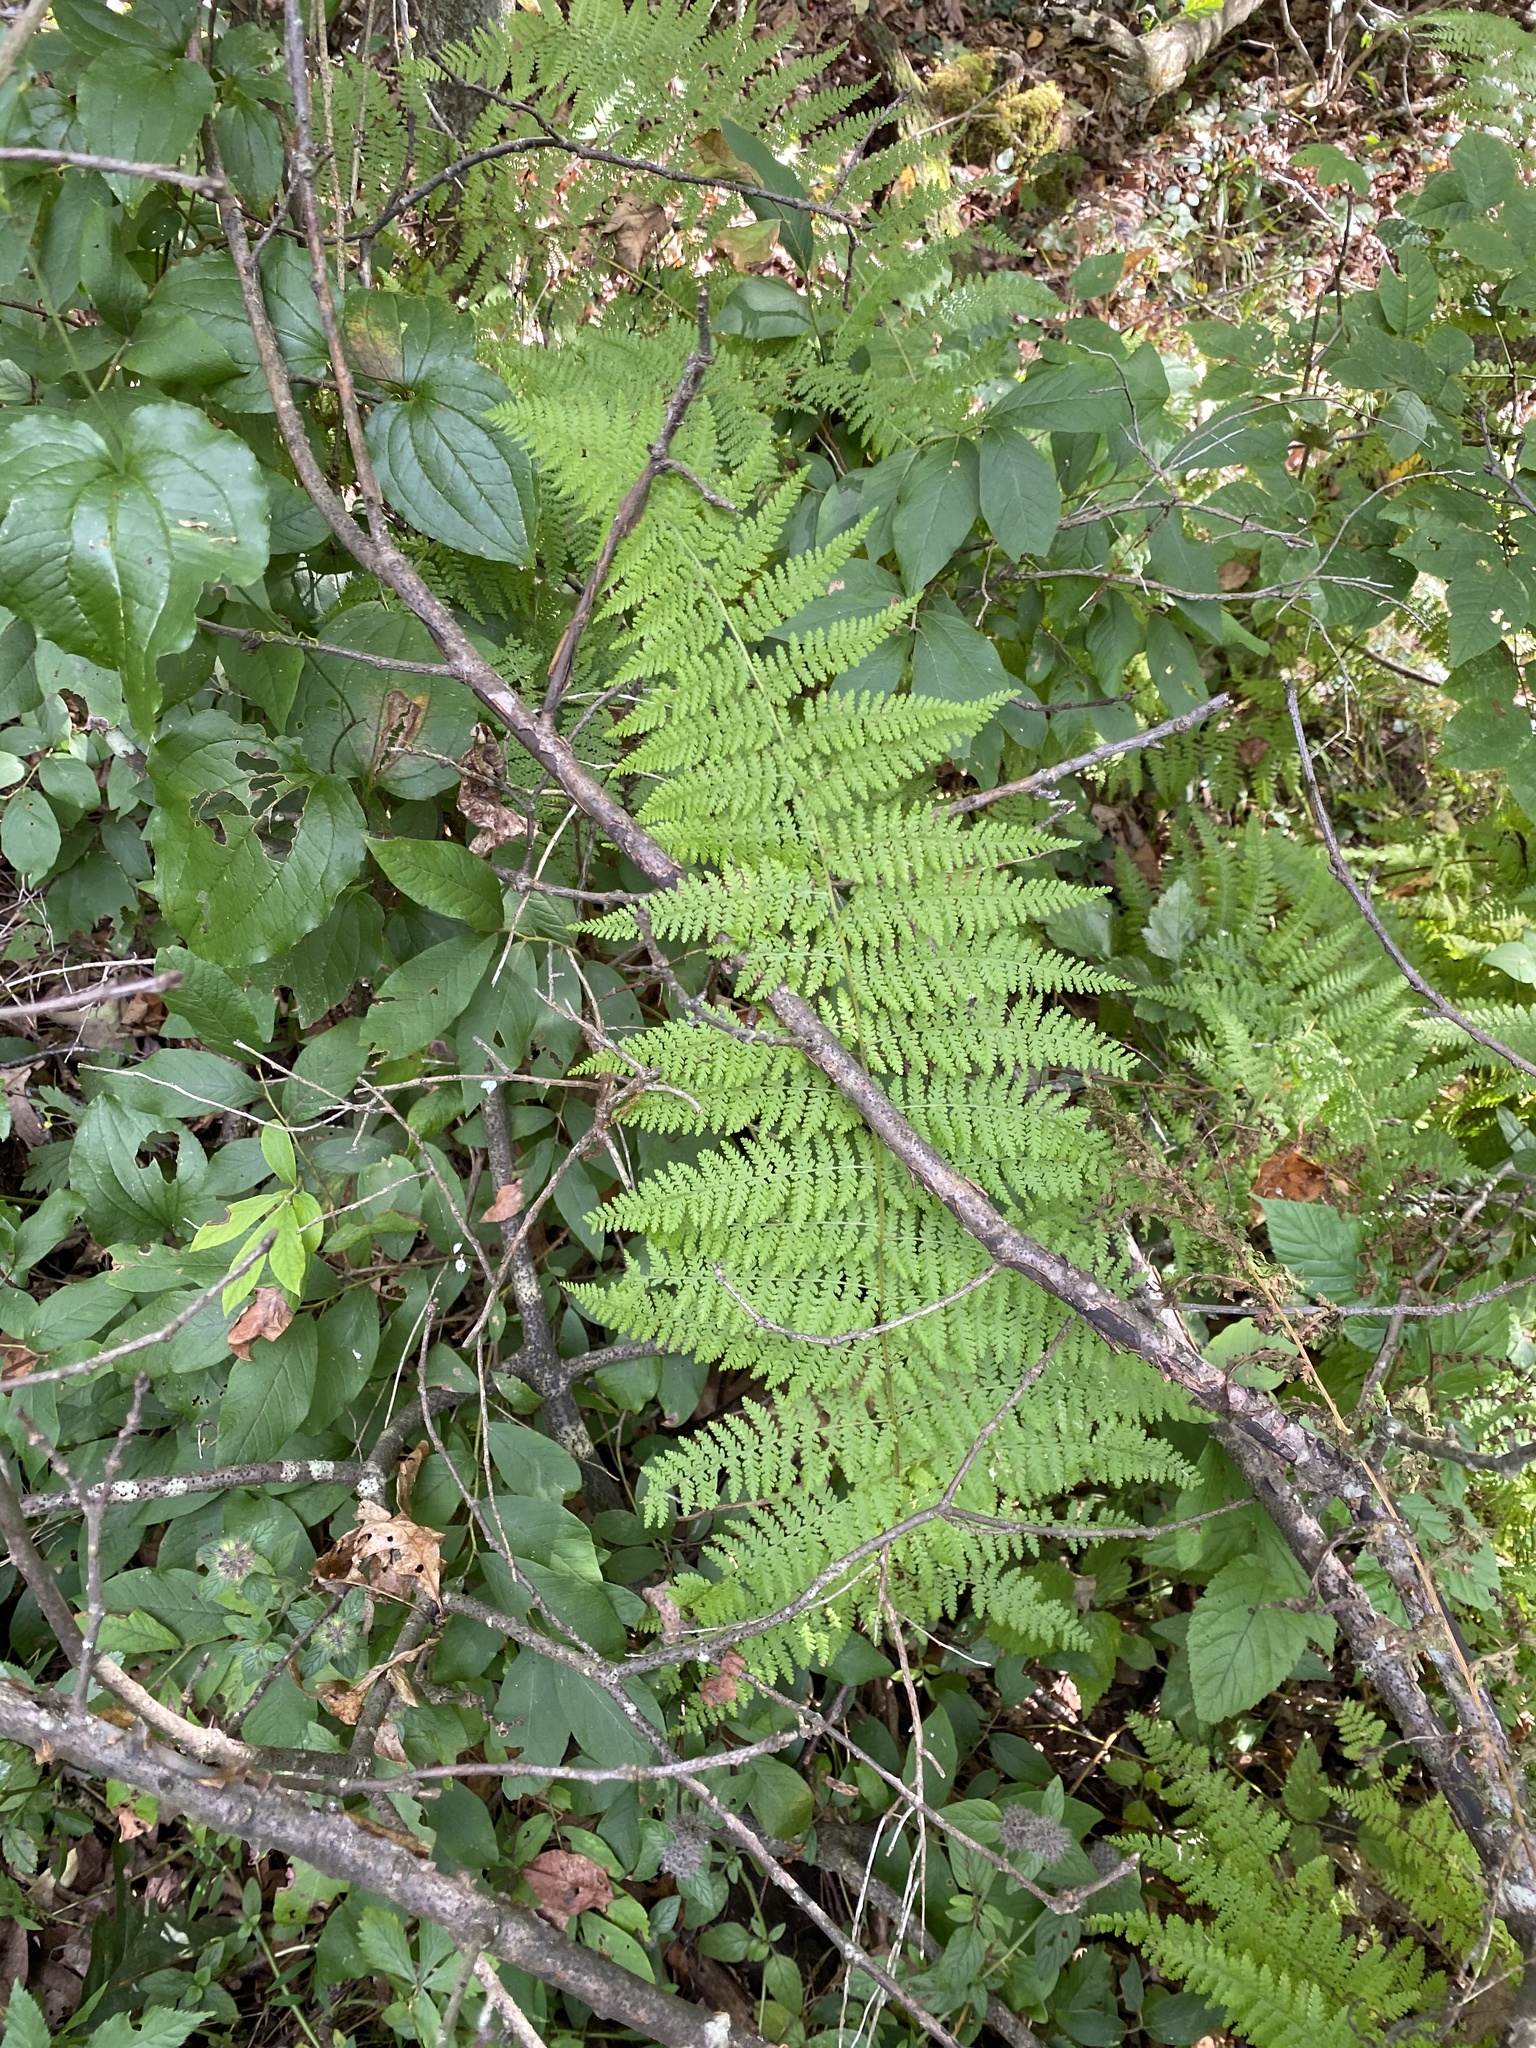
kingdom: Plantae
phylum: Tracheophyta
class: Polypodiopsida
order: Polypodiales
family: Dennstaedtiaceae
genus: Sitobolium
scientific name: Sitobolium punctilobum
